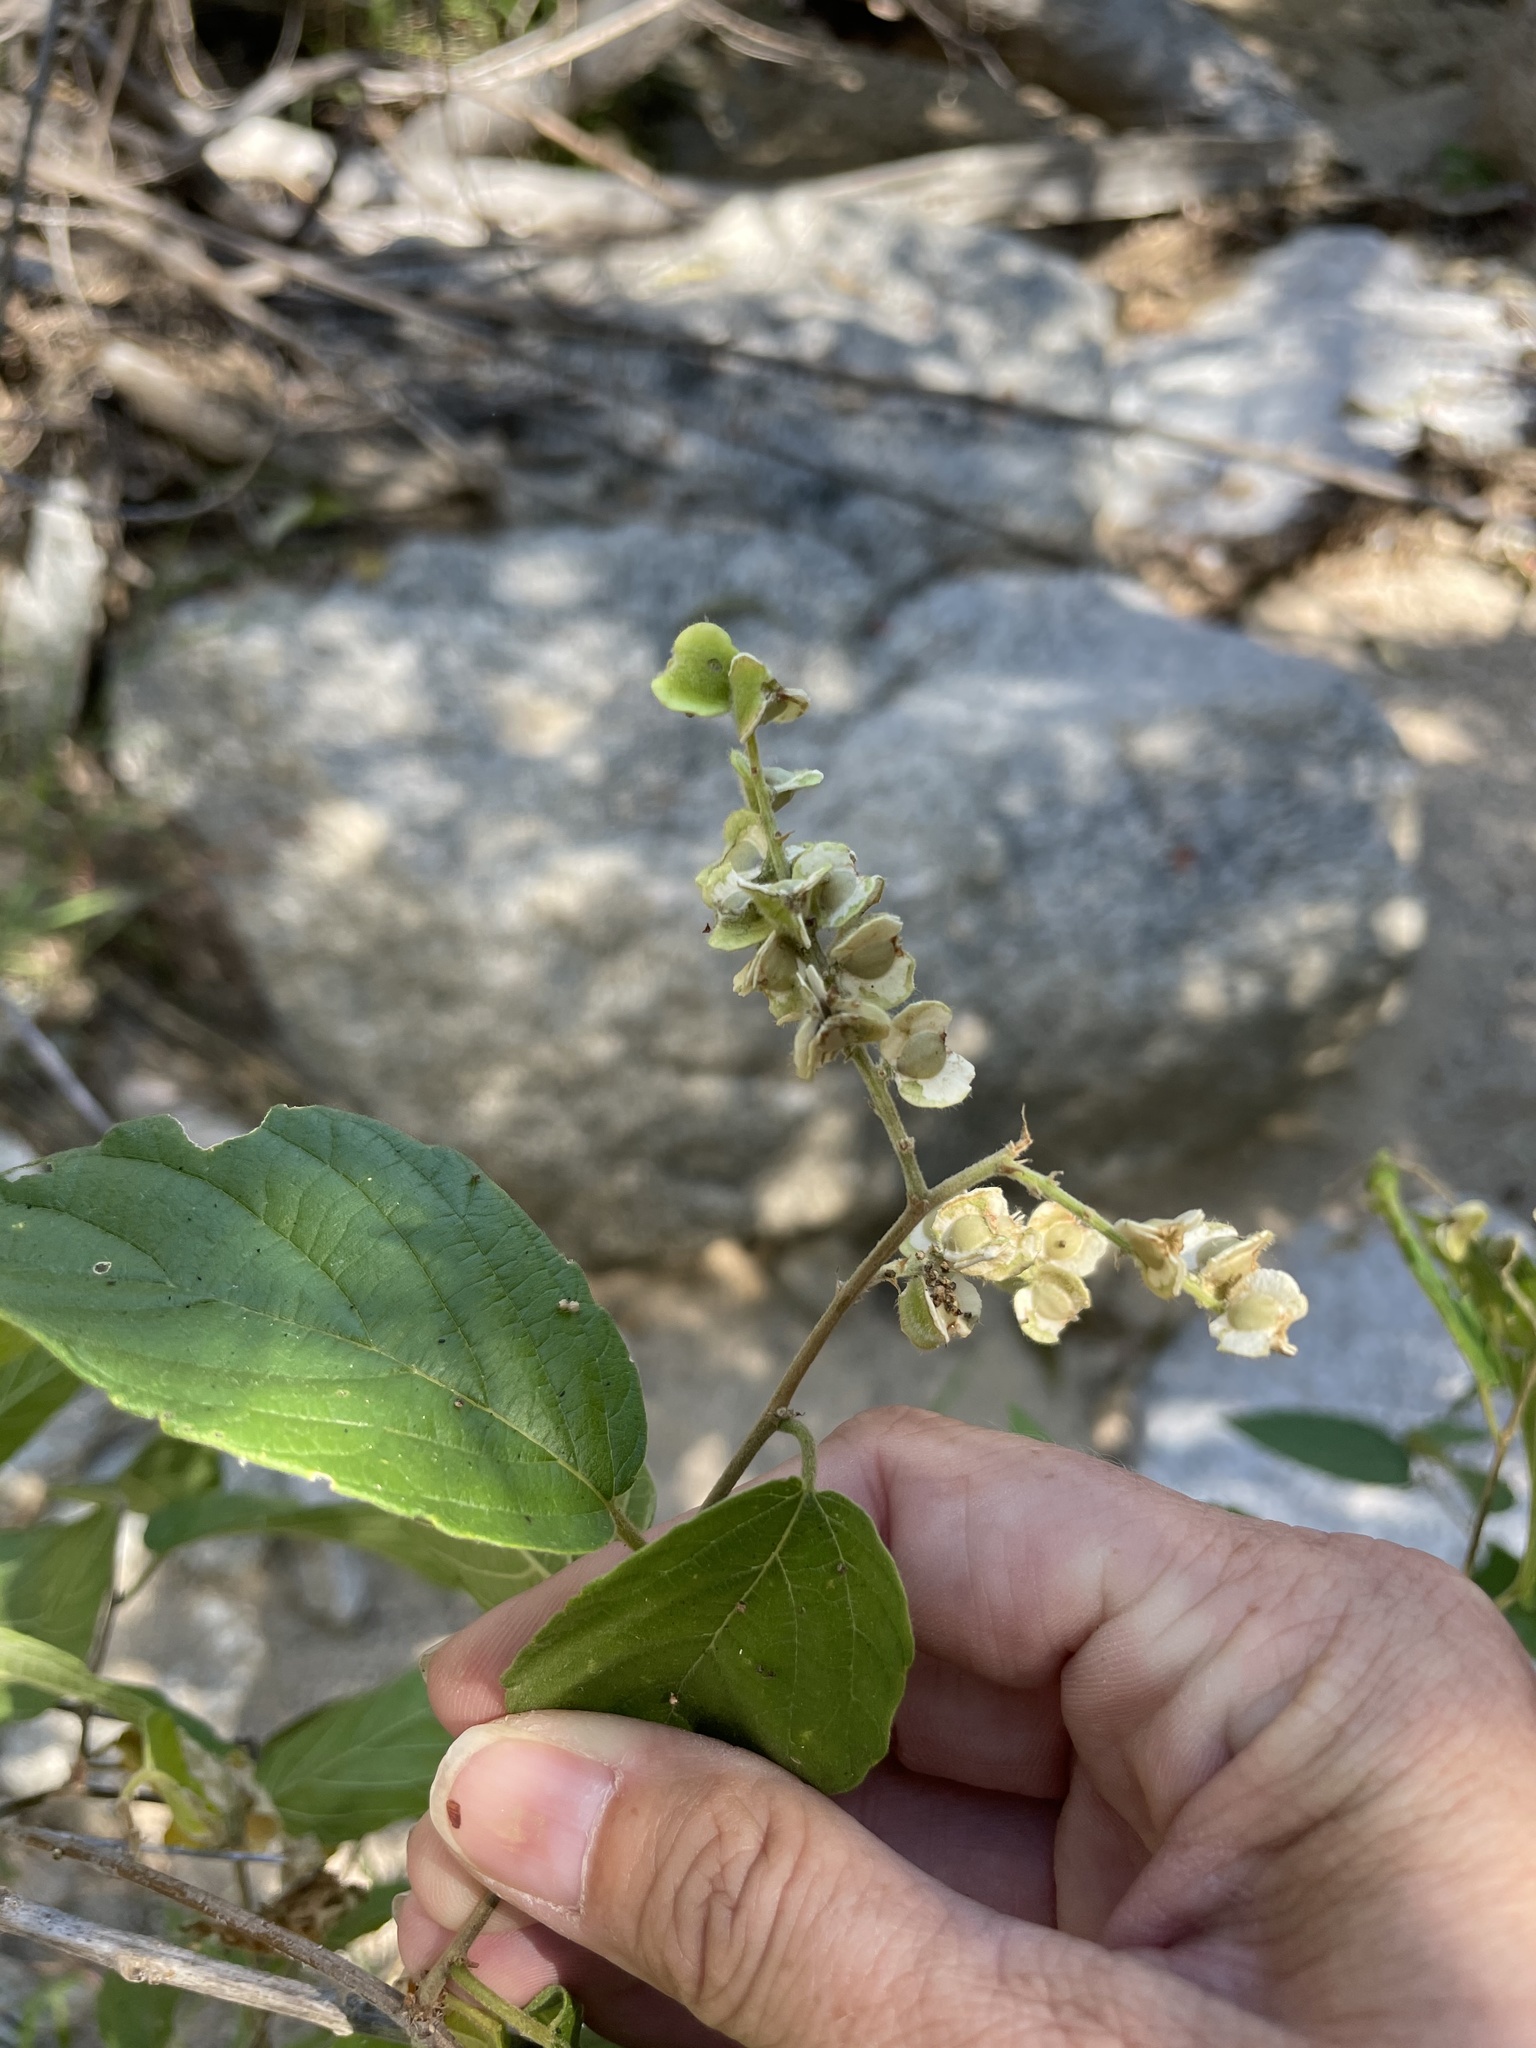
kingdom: Plantae
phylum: Tracheophyta
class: Magnoliopsida
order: Rosales
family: Rhamnaceae
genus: Gouania
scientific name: Gouania rosei
